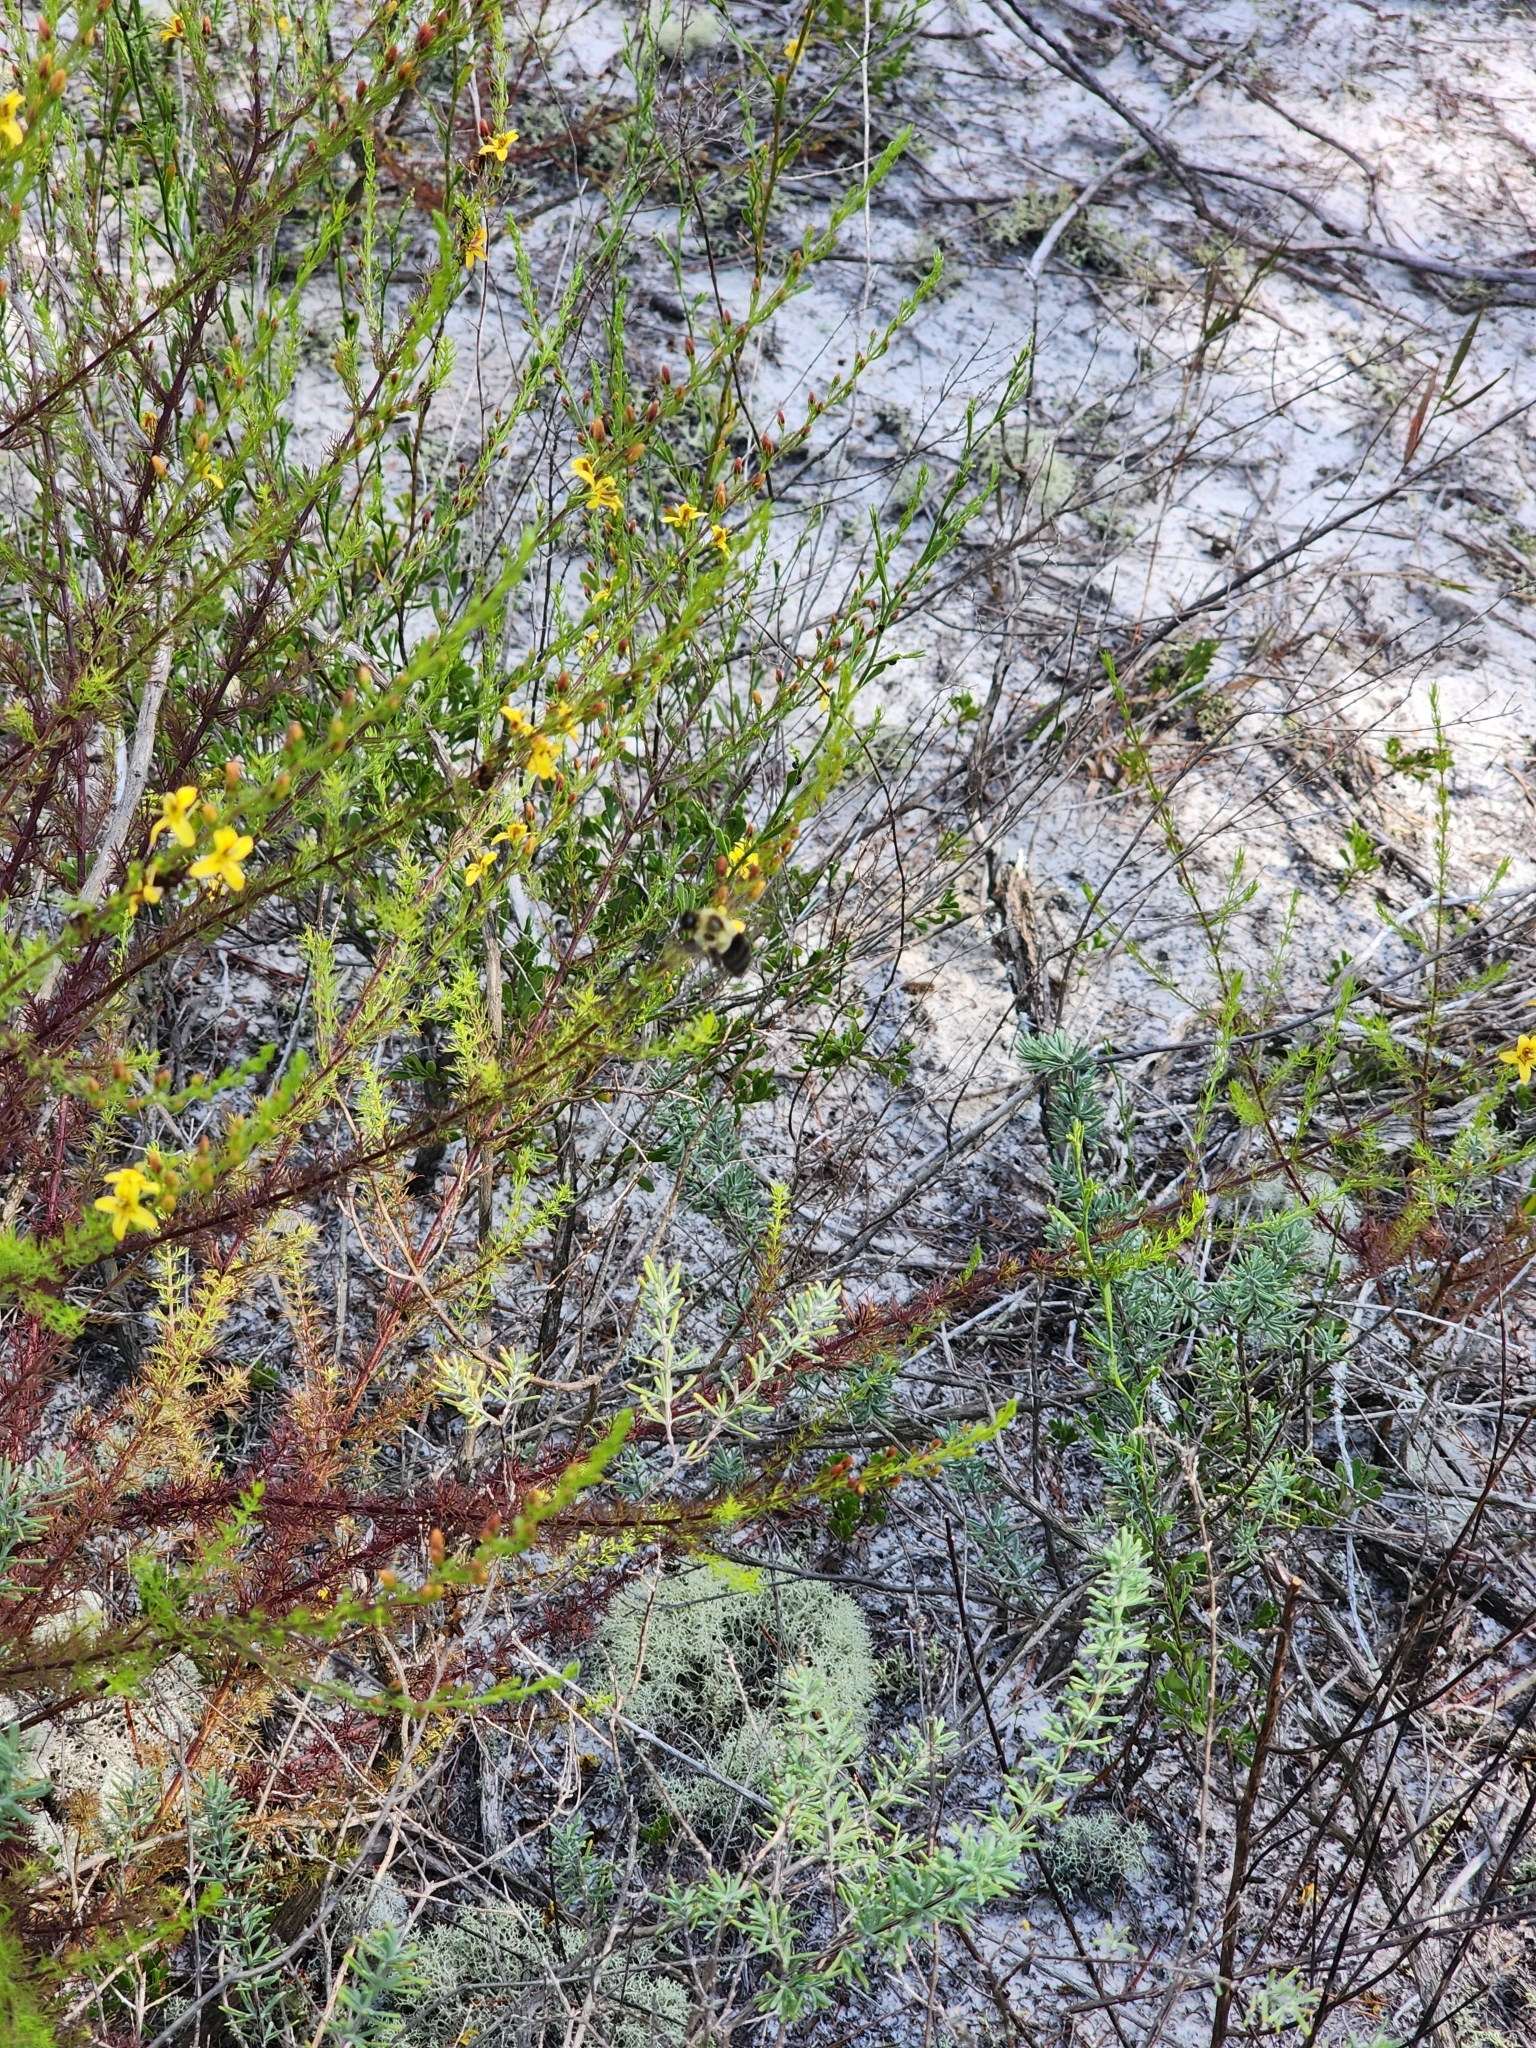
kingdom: Plantae
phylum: Tracheophyta
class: Magnoliopsida
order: Lamiales
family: Orobanchaceae
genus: Seymeria
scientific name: Seymeria cassioides
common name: Yaupon black-senna
